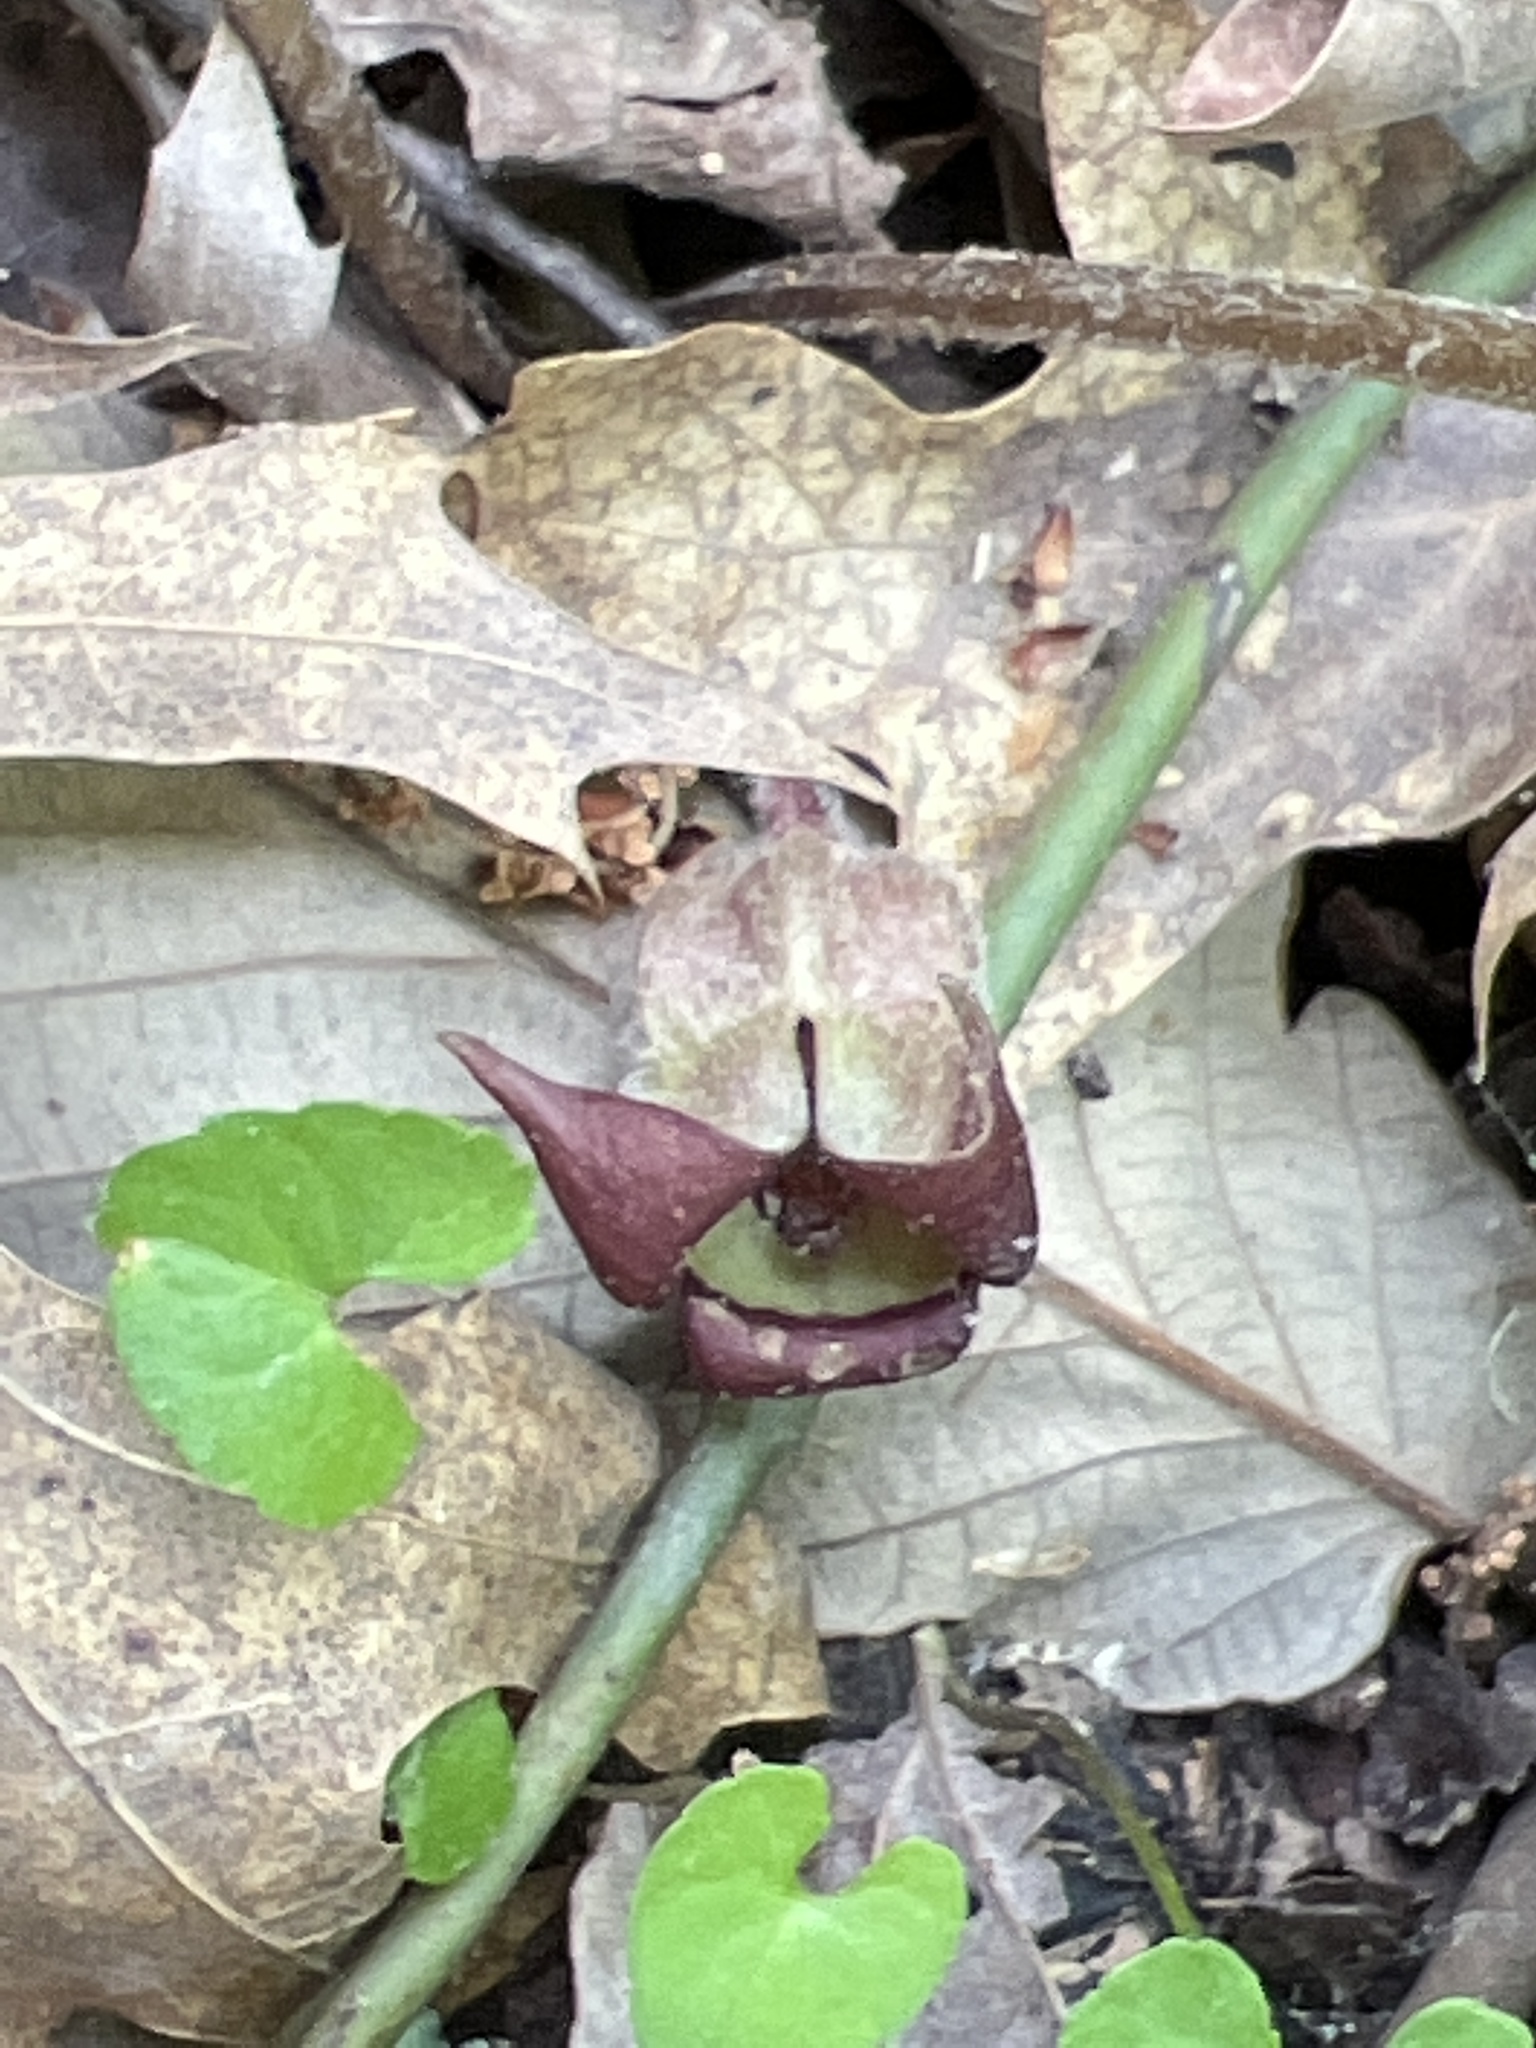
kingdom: Plantae
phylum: Tracheophyta
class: Magnoliopsida
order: Piperales
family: Aristolochiaceae
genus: Asarum
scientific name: Asarum canadense
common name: Wild ginger
